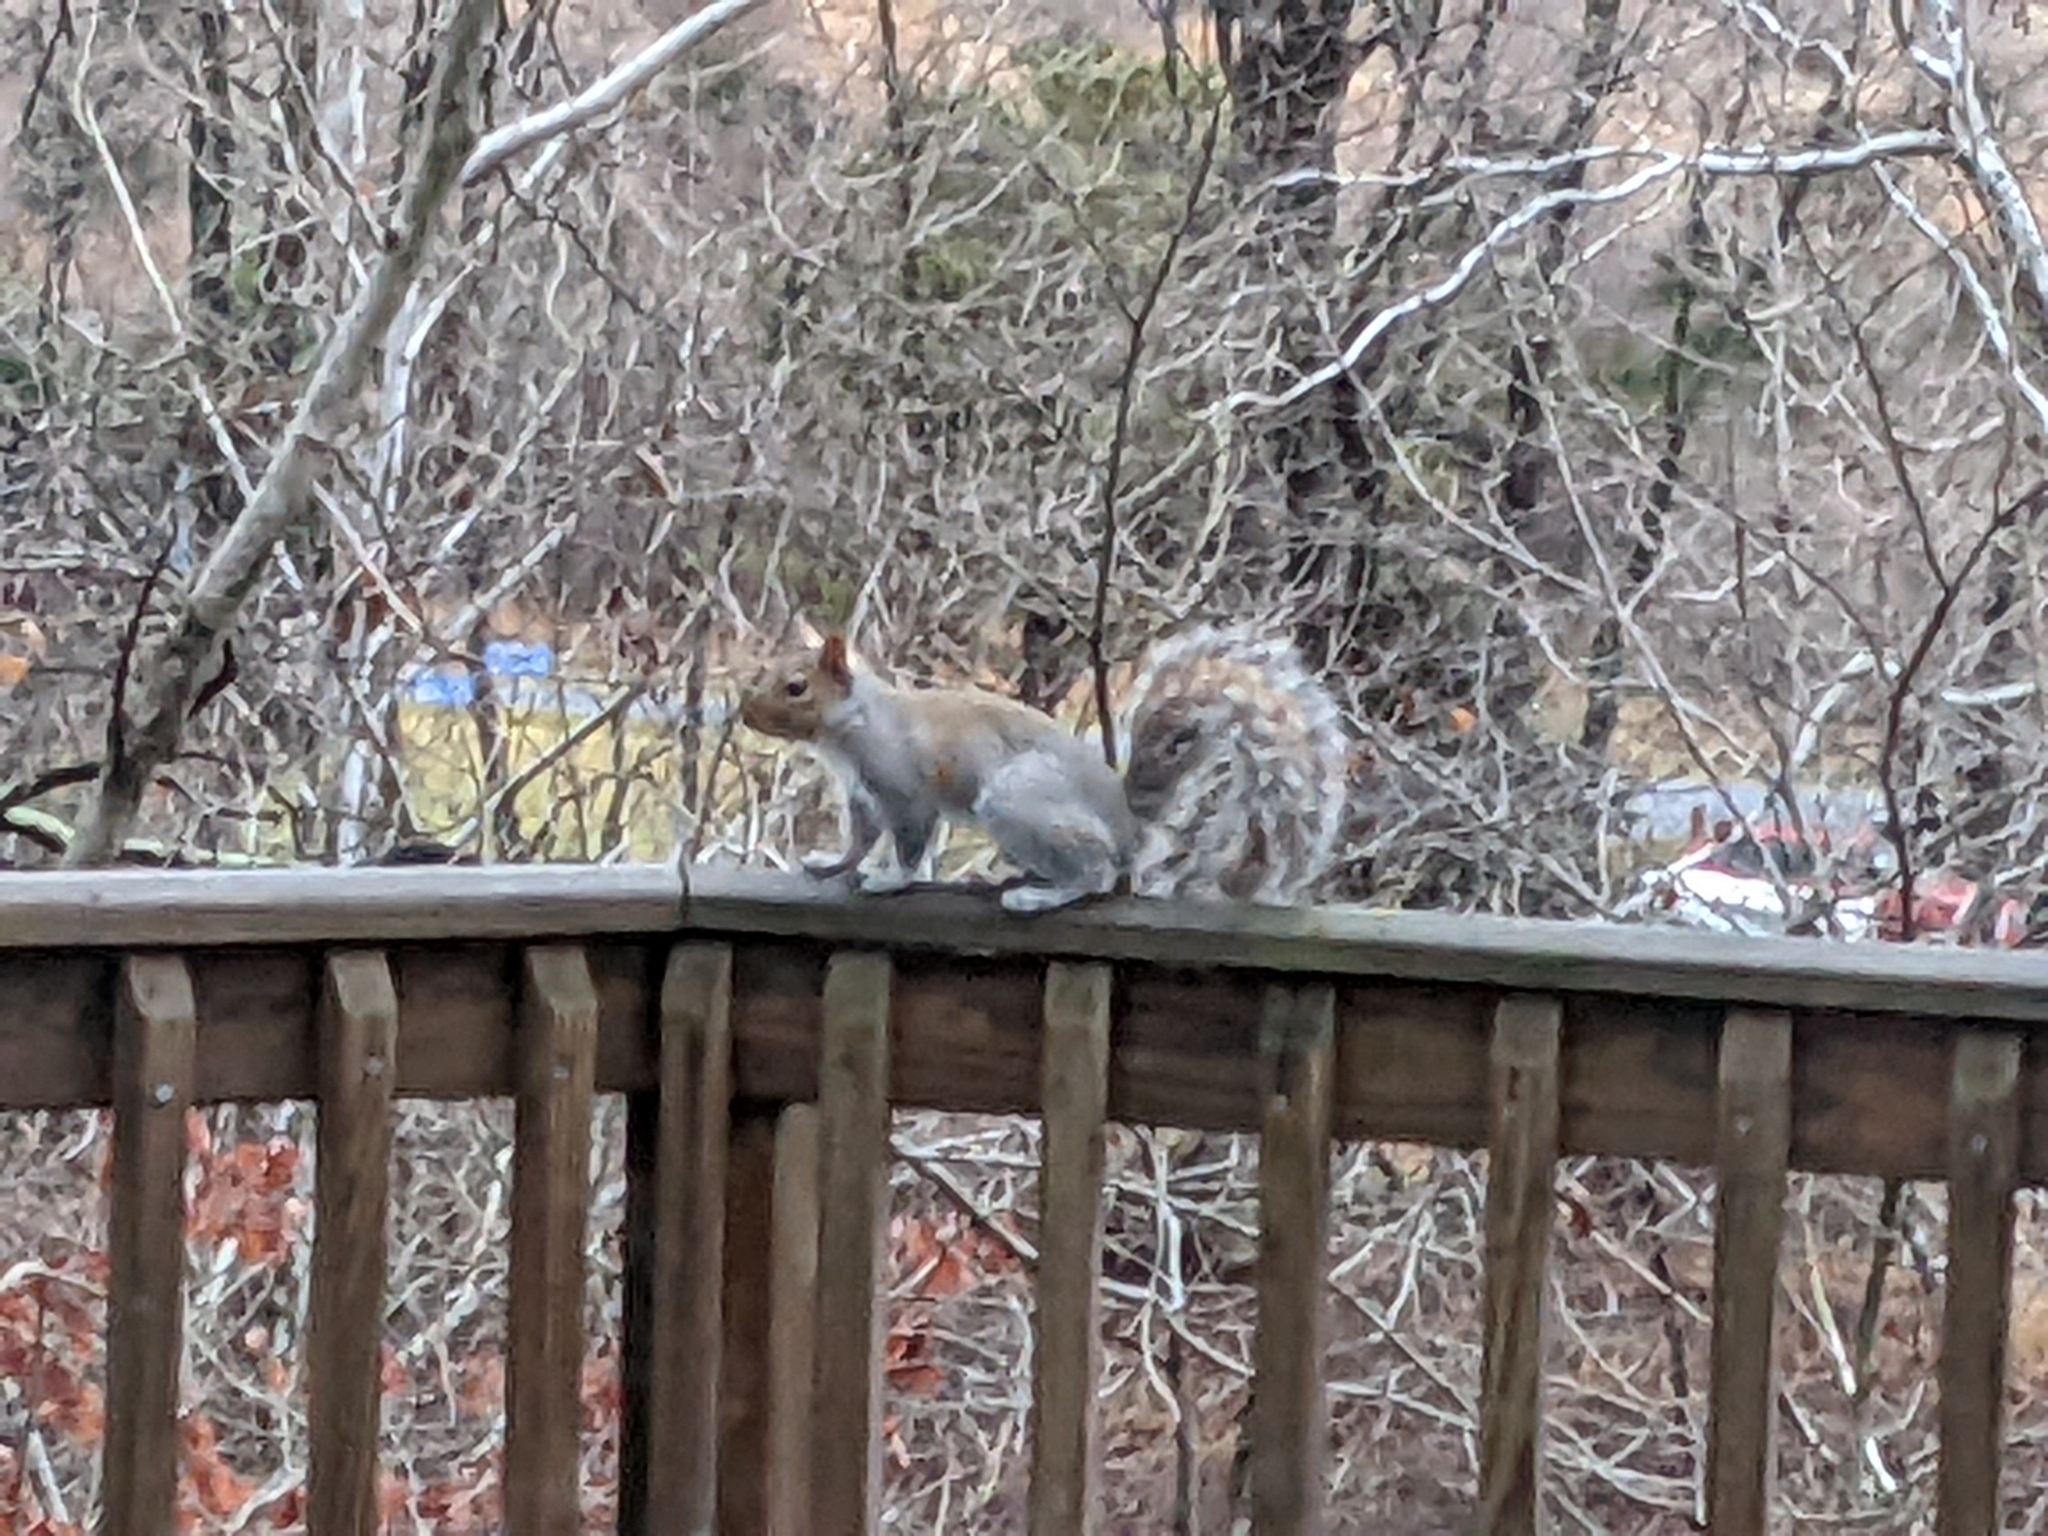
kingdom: Animalia
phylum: Chordata
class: Mammalia
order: Rodentia
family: Sciuridae
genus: Sciurus
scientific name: Sciurus carolinensis
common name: Eastern gray squirrel
